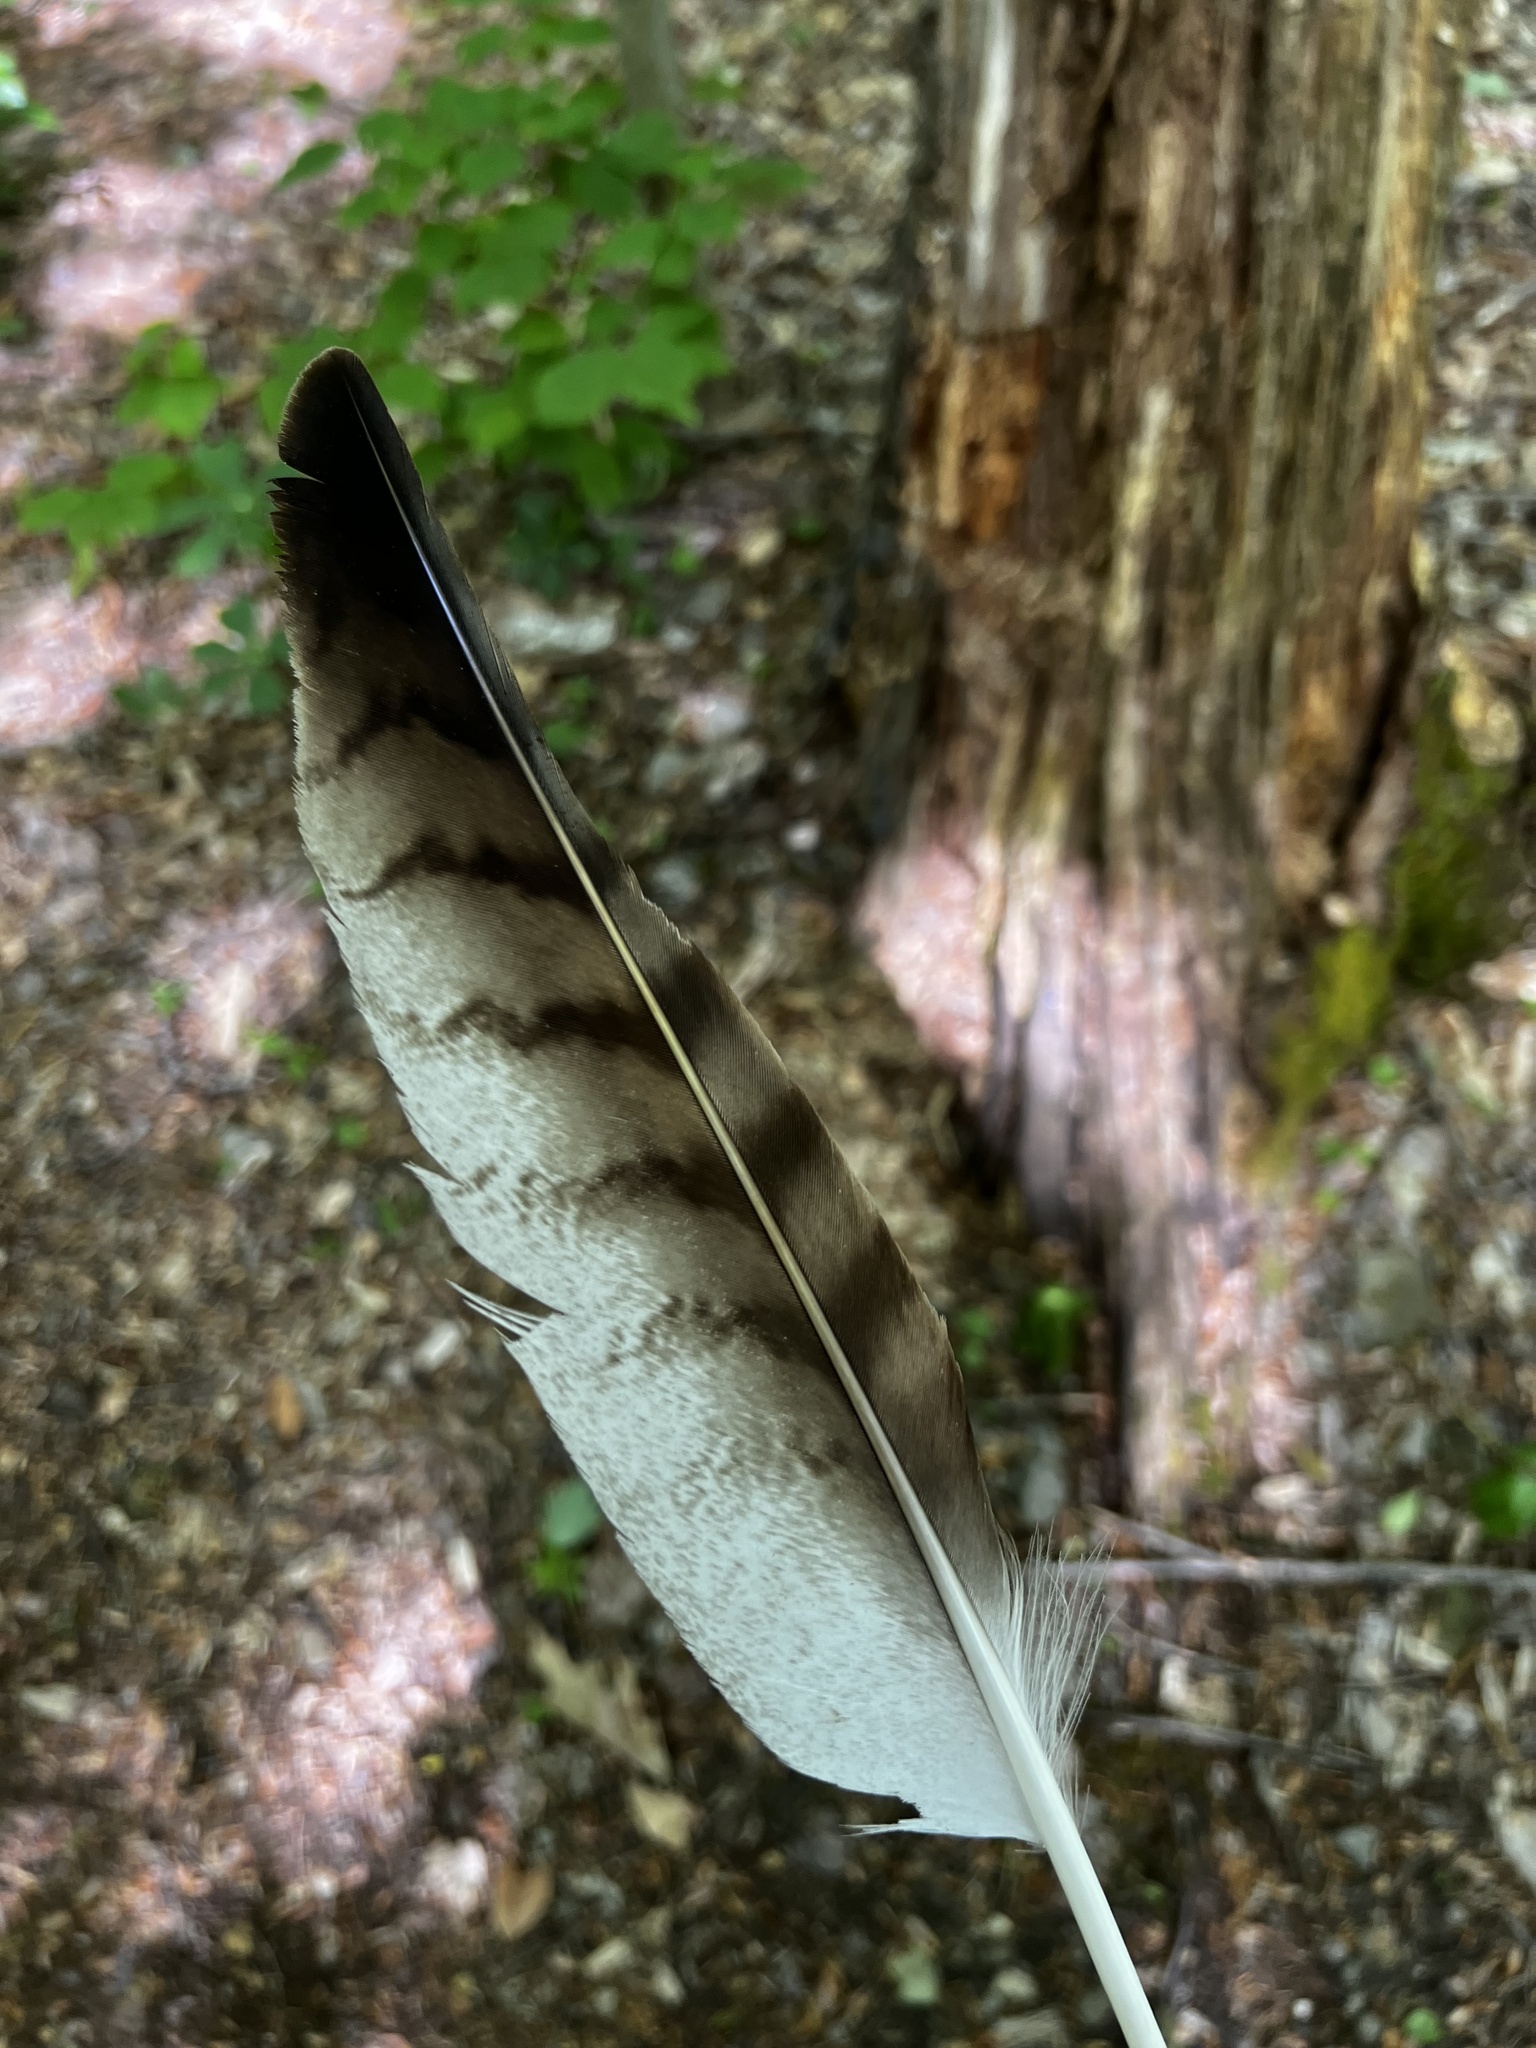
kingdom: Animalia
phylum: Chordata
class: Aves
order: Accipitriformes
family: Accipitridae
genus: Buteo
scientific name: Buteo jamaicensis
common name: Red-tailed hawk
